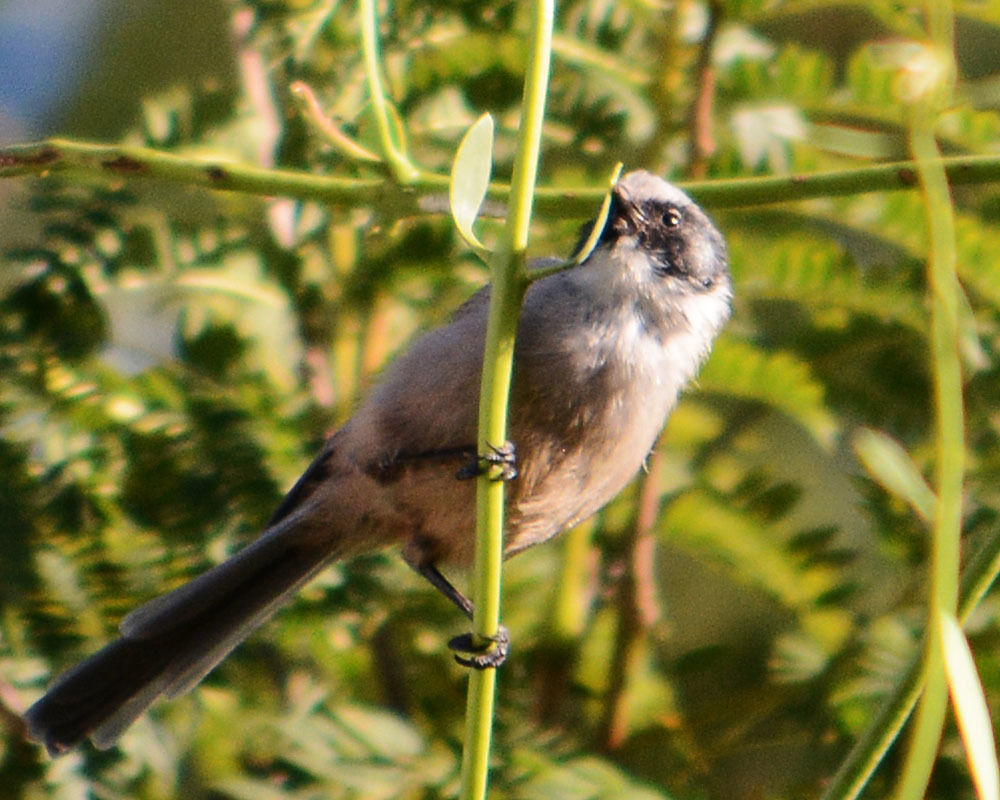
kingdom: Animalia
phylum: Chordata
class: Aves
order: Passeriformes
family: Aegithalidae
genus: Psaltriparus
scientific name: Psaltriparus minimus
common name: American bushtit
